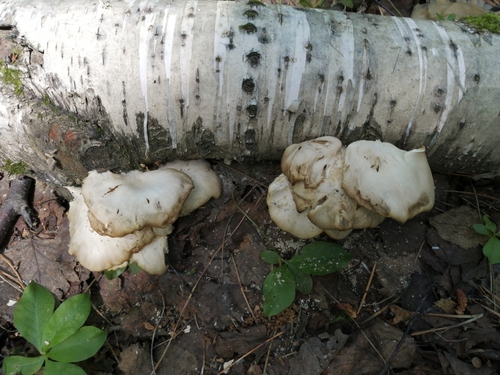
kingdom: Fungi
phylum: Basidiomycota
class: Agaricomycetes
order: Agaricales
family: Pleurotaceae
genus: Pleurotus
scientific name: Pleurotus pulmonarius
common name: Pale oyster
